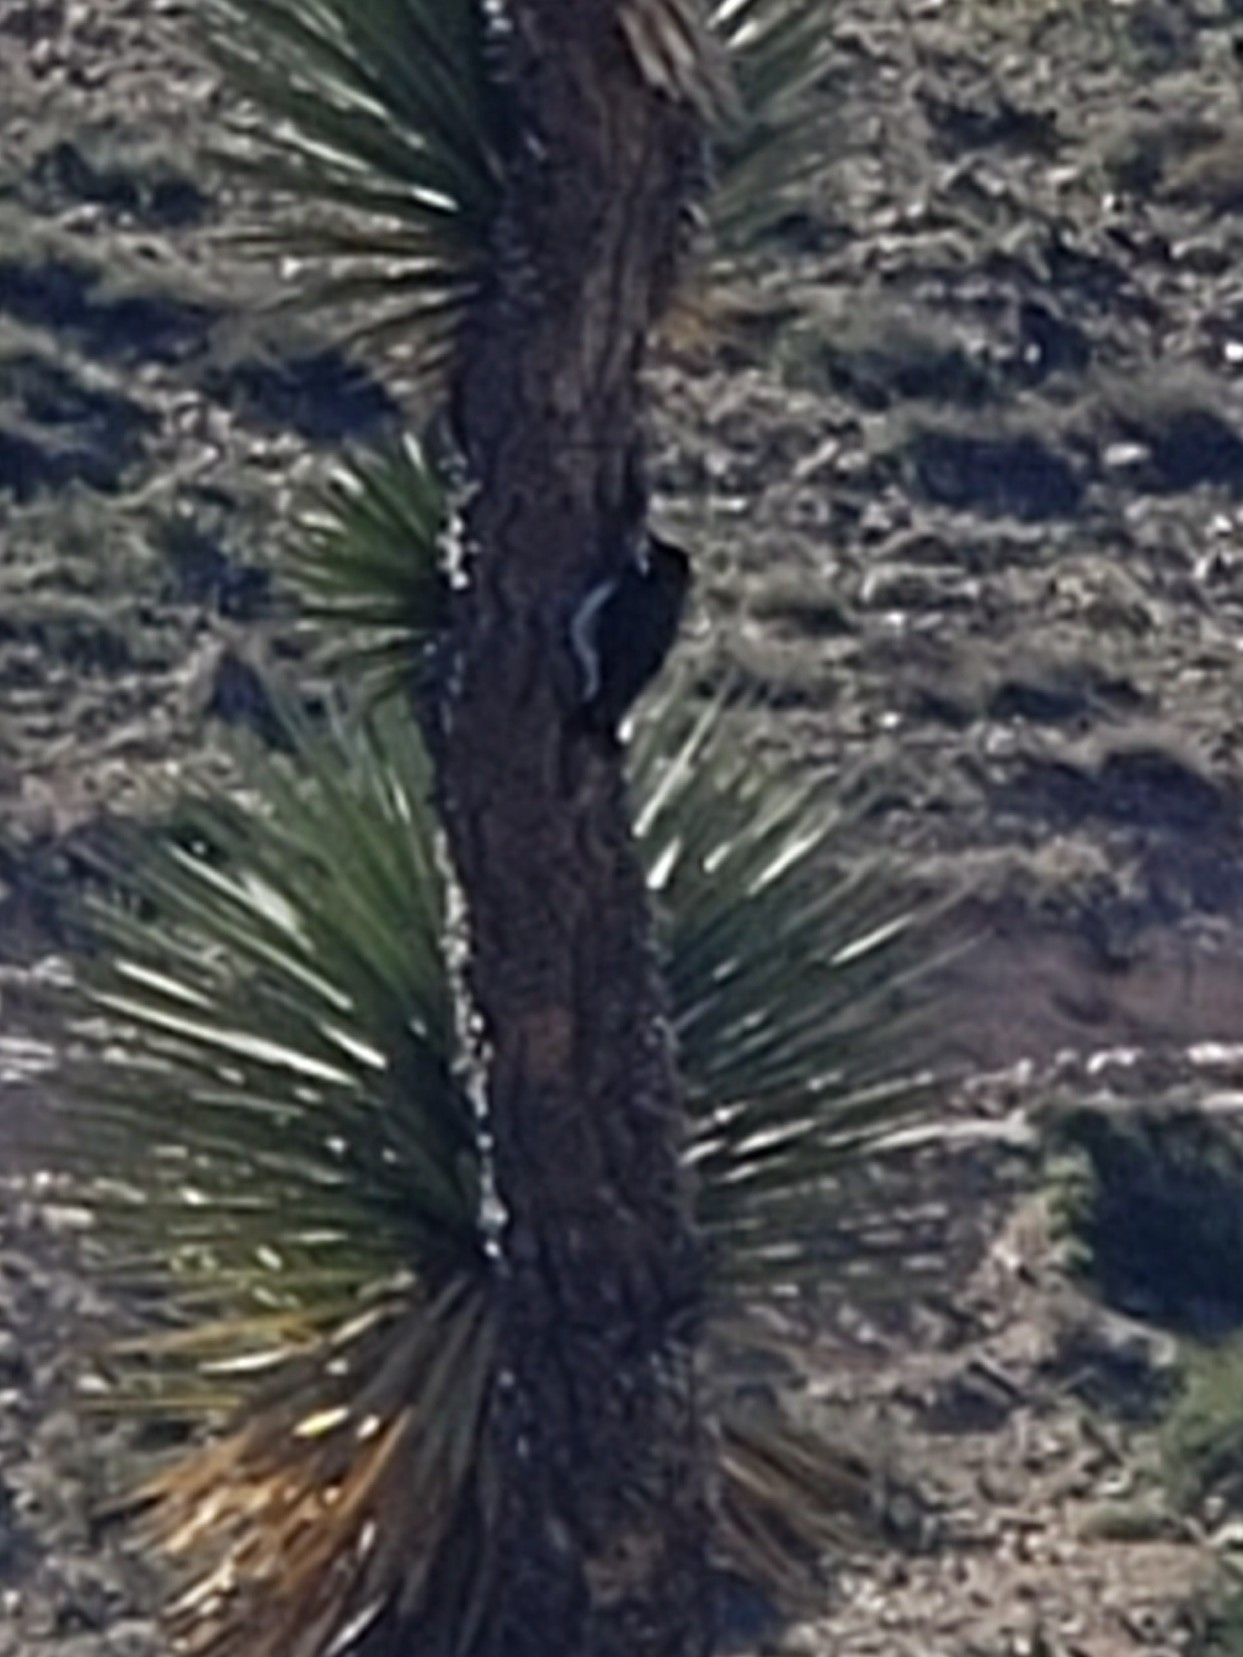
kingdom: Animalia
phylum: Chordata
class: Aves
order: Piciformes
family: Picidae
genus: Melanerpes
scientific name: Melanerpes formicivorus
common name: Acorn woodpecker
